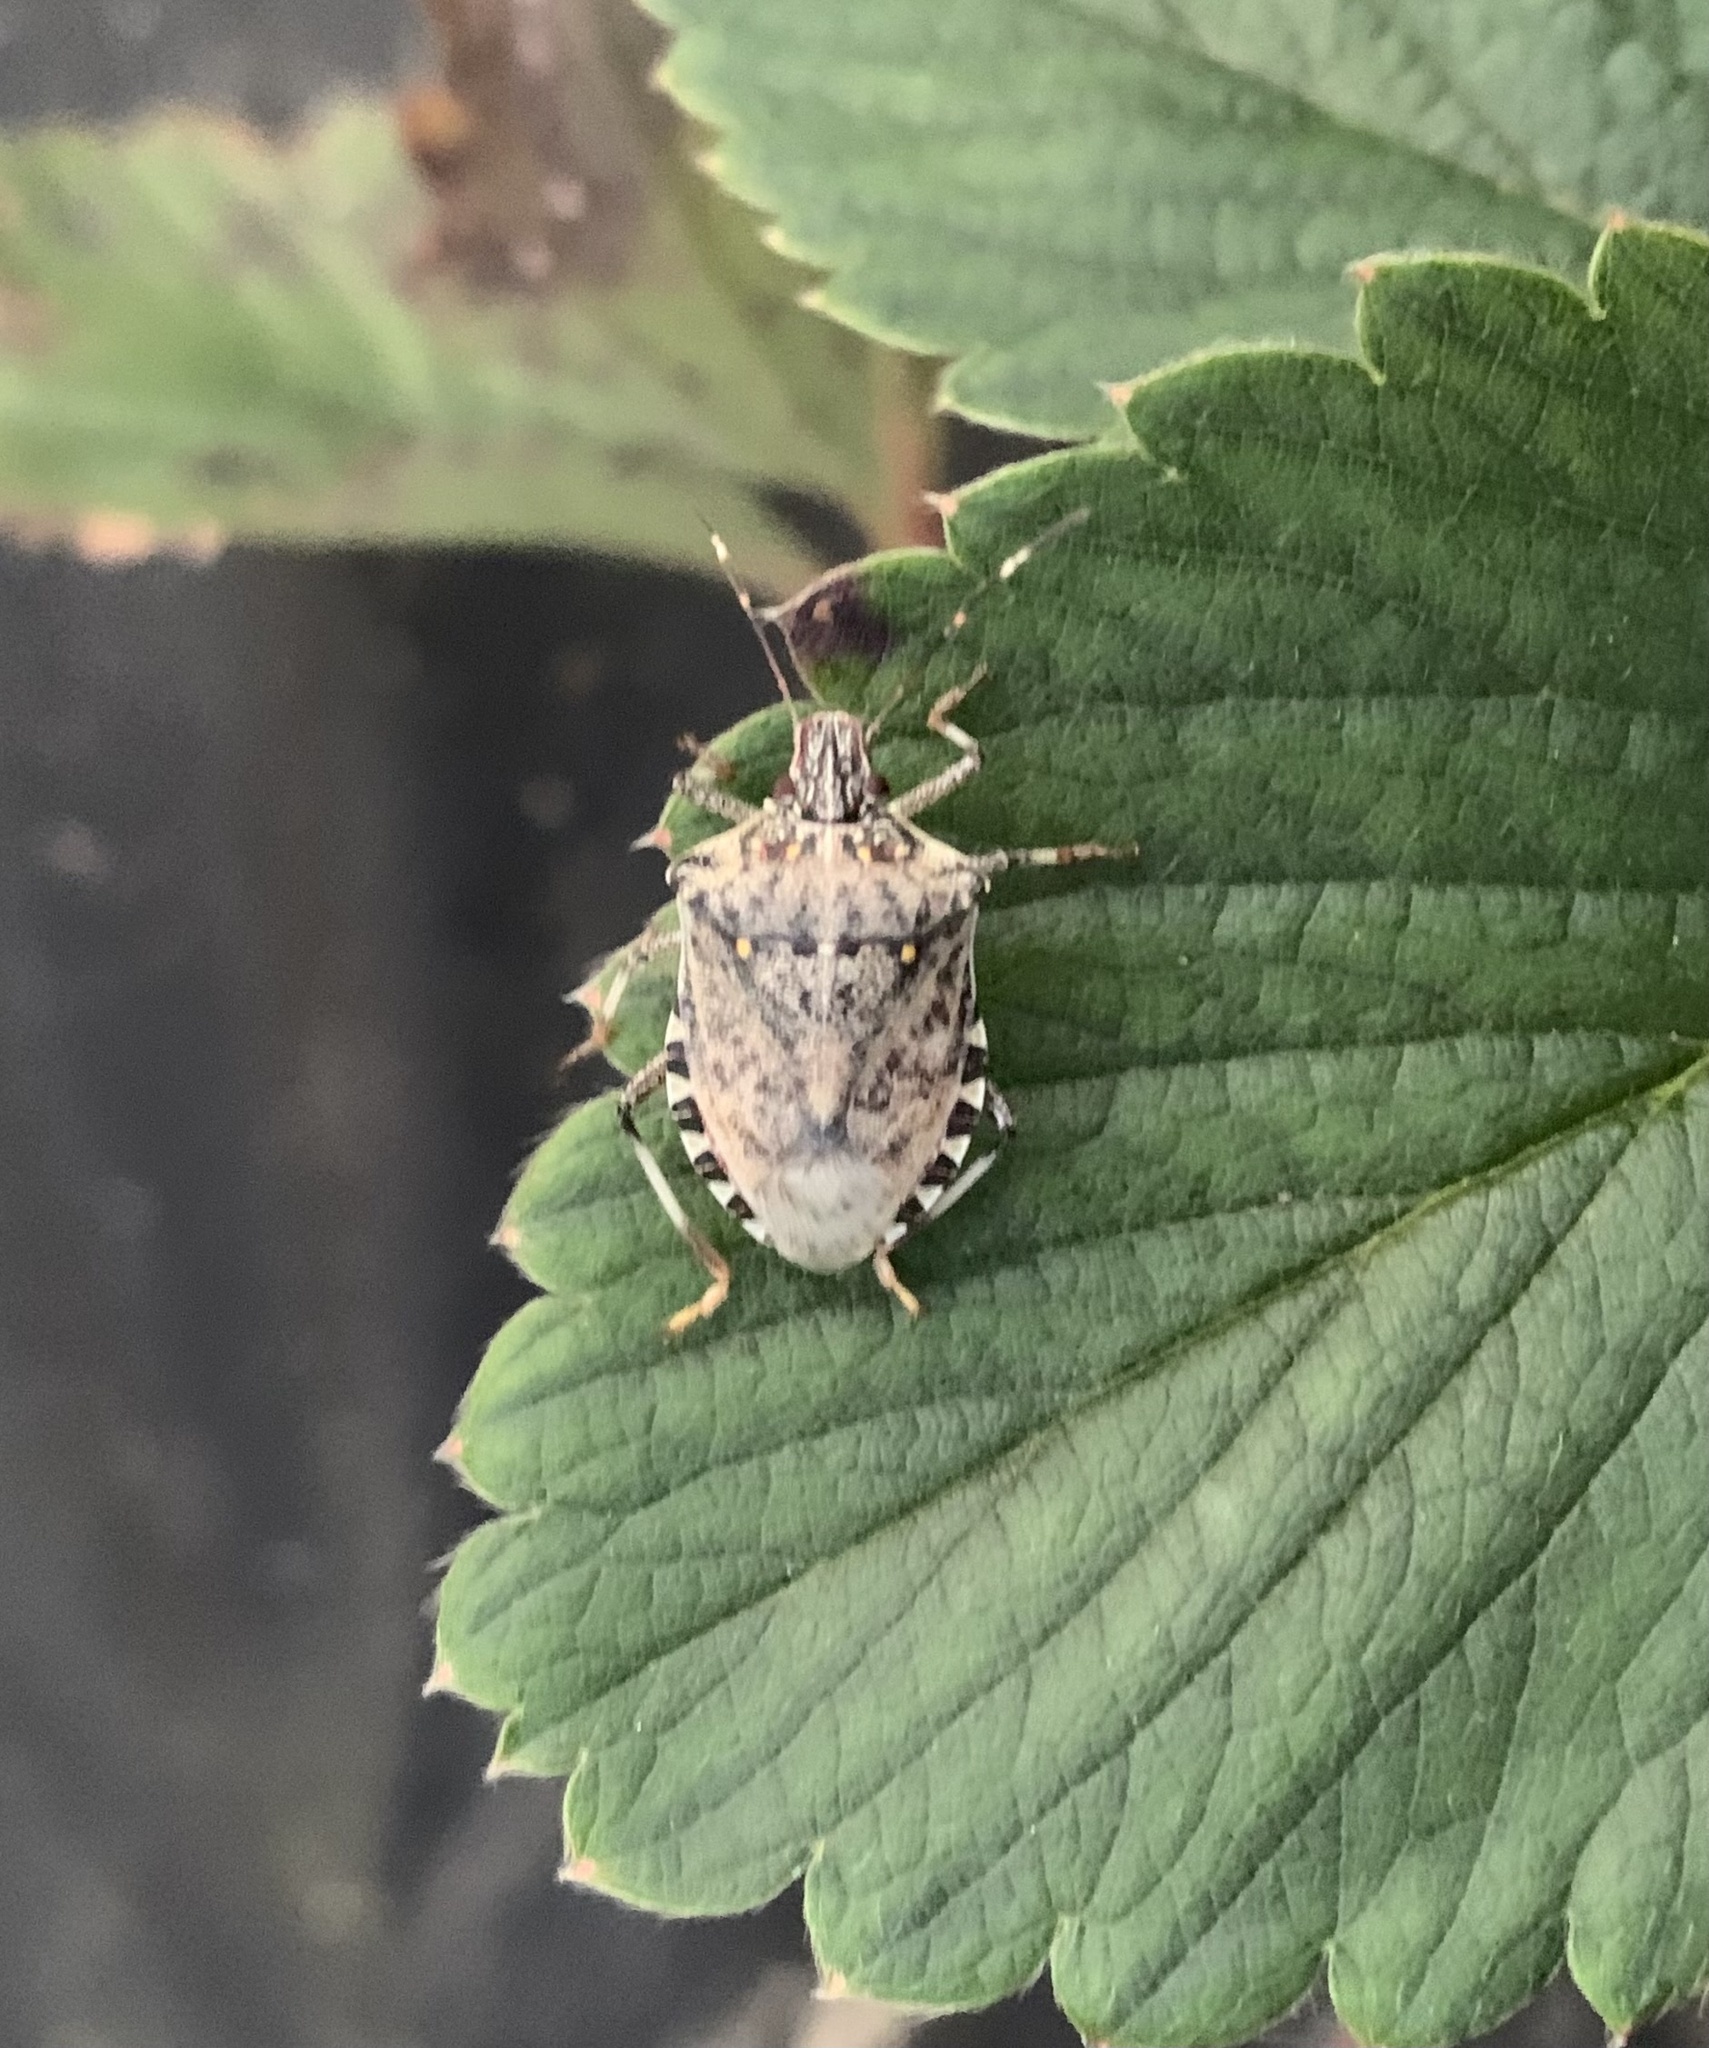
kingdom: Animalia
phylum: Arthropoda
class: Insecta
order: Hemiptera
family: Pentatomidae
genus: Halyomorpha
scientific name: Halyomorpha halys
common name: Brown marmorated stink bug
